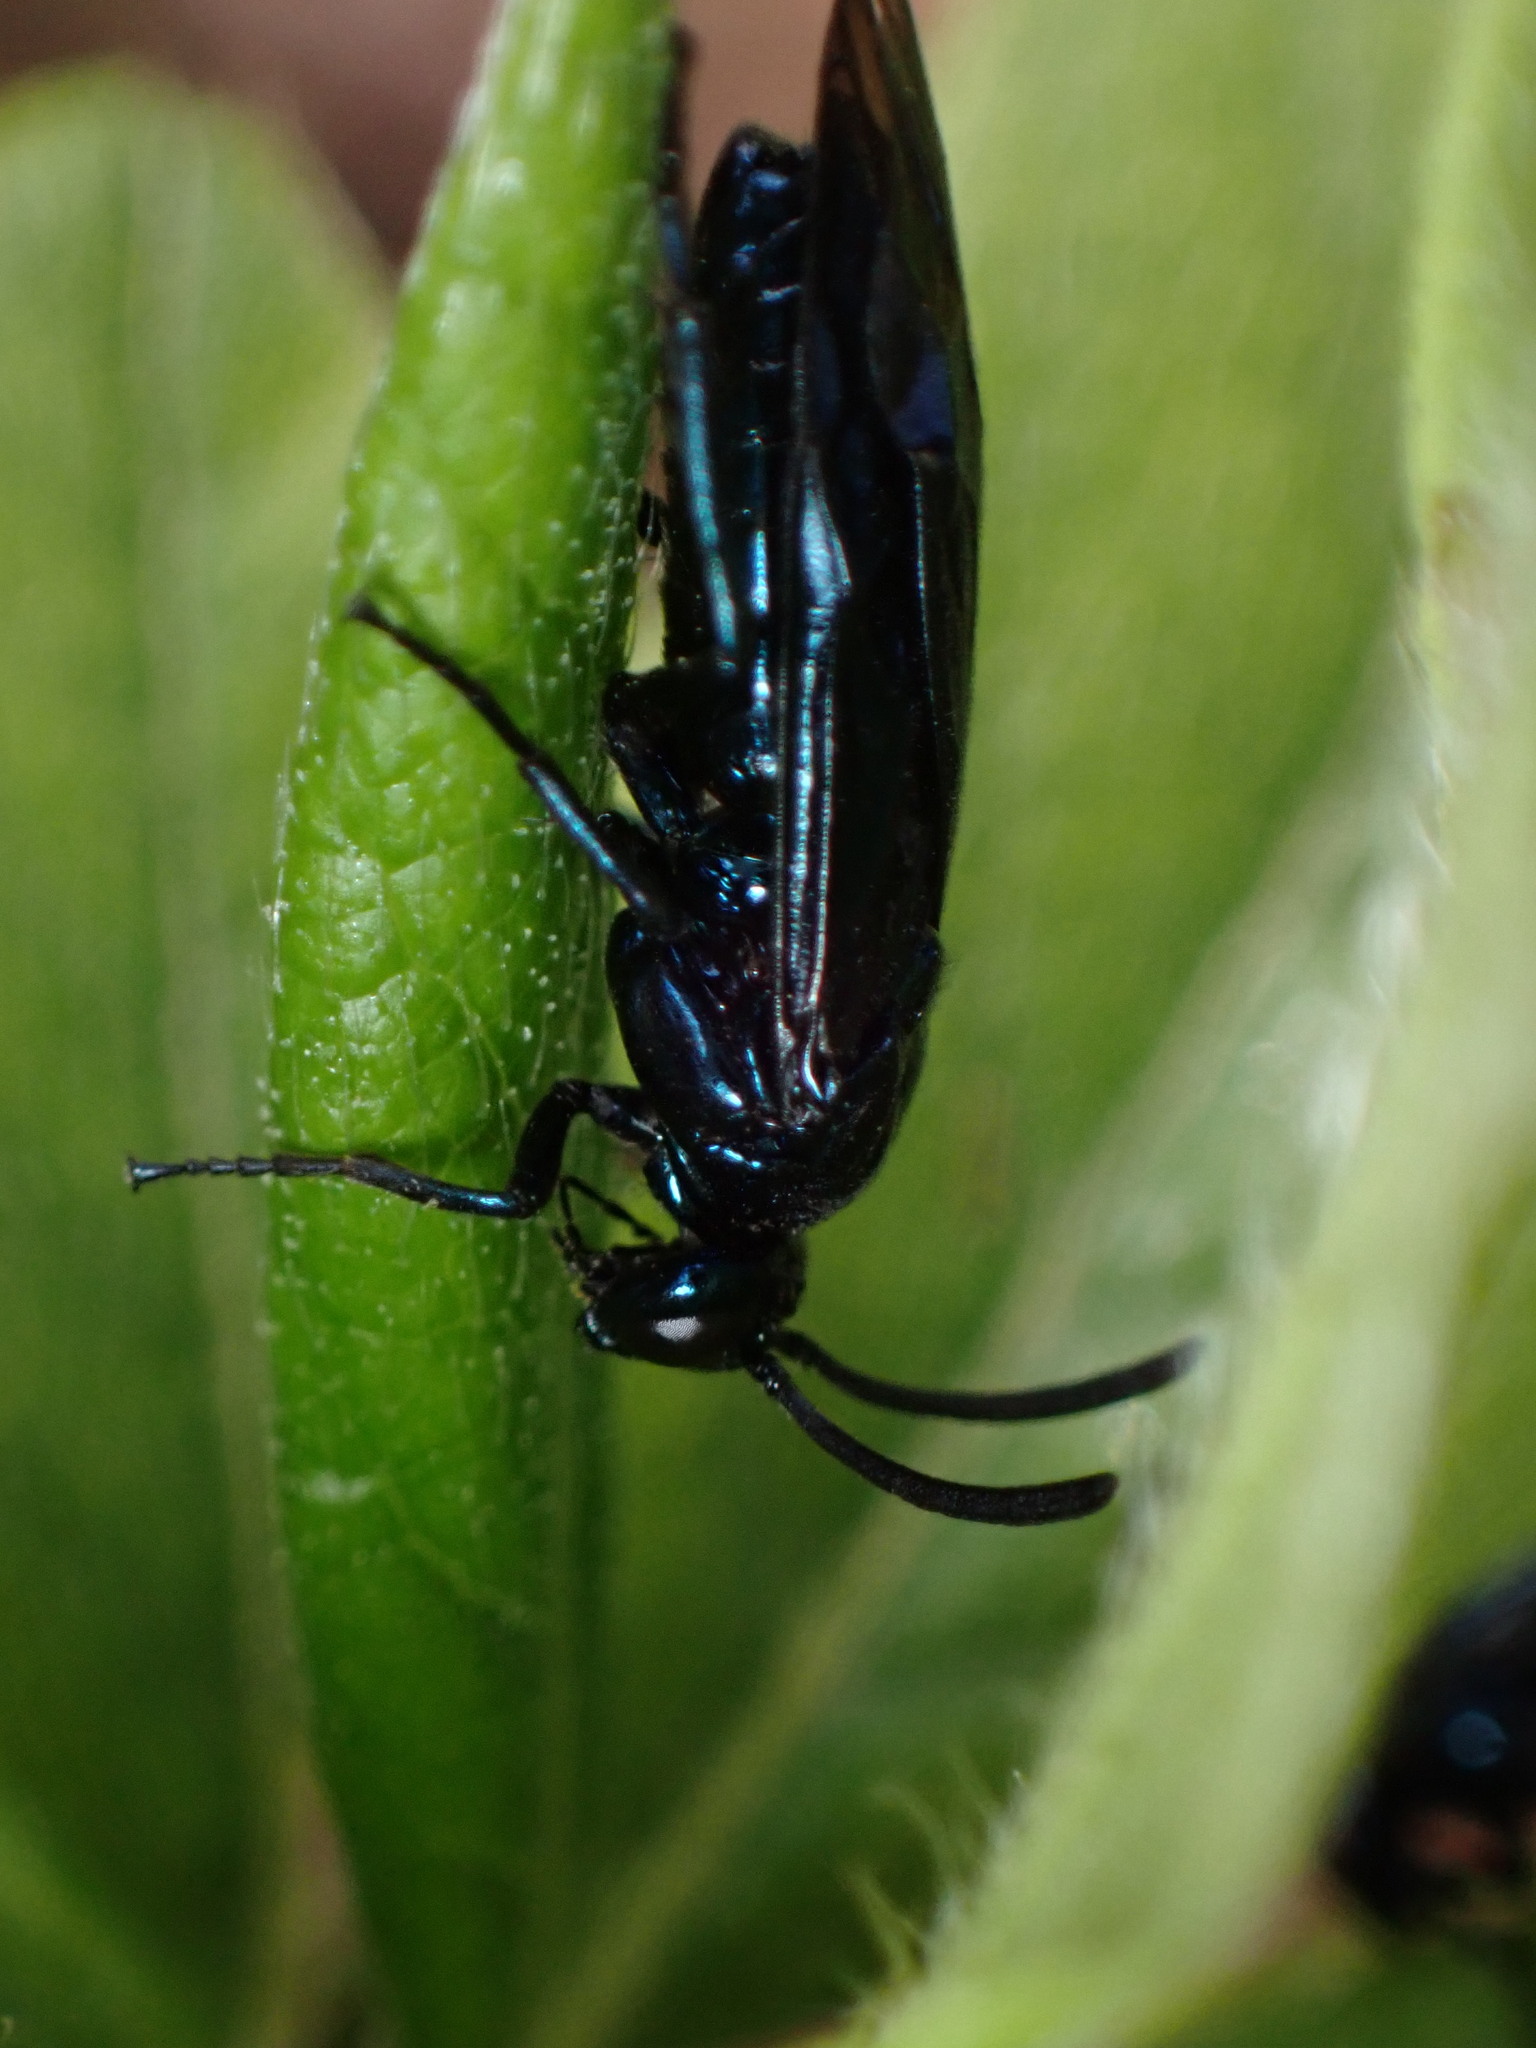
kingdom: Animalia
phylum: Arthropoda
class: Insecta
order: Hymenoptera
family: Argidae
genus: Arge
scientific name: Arge similis
